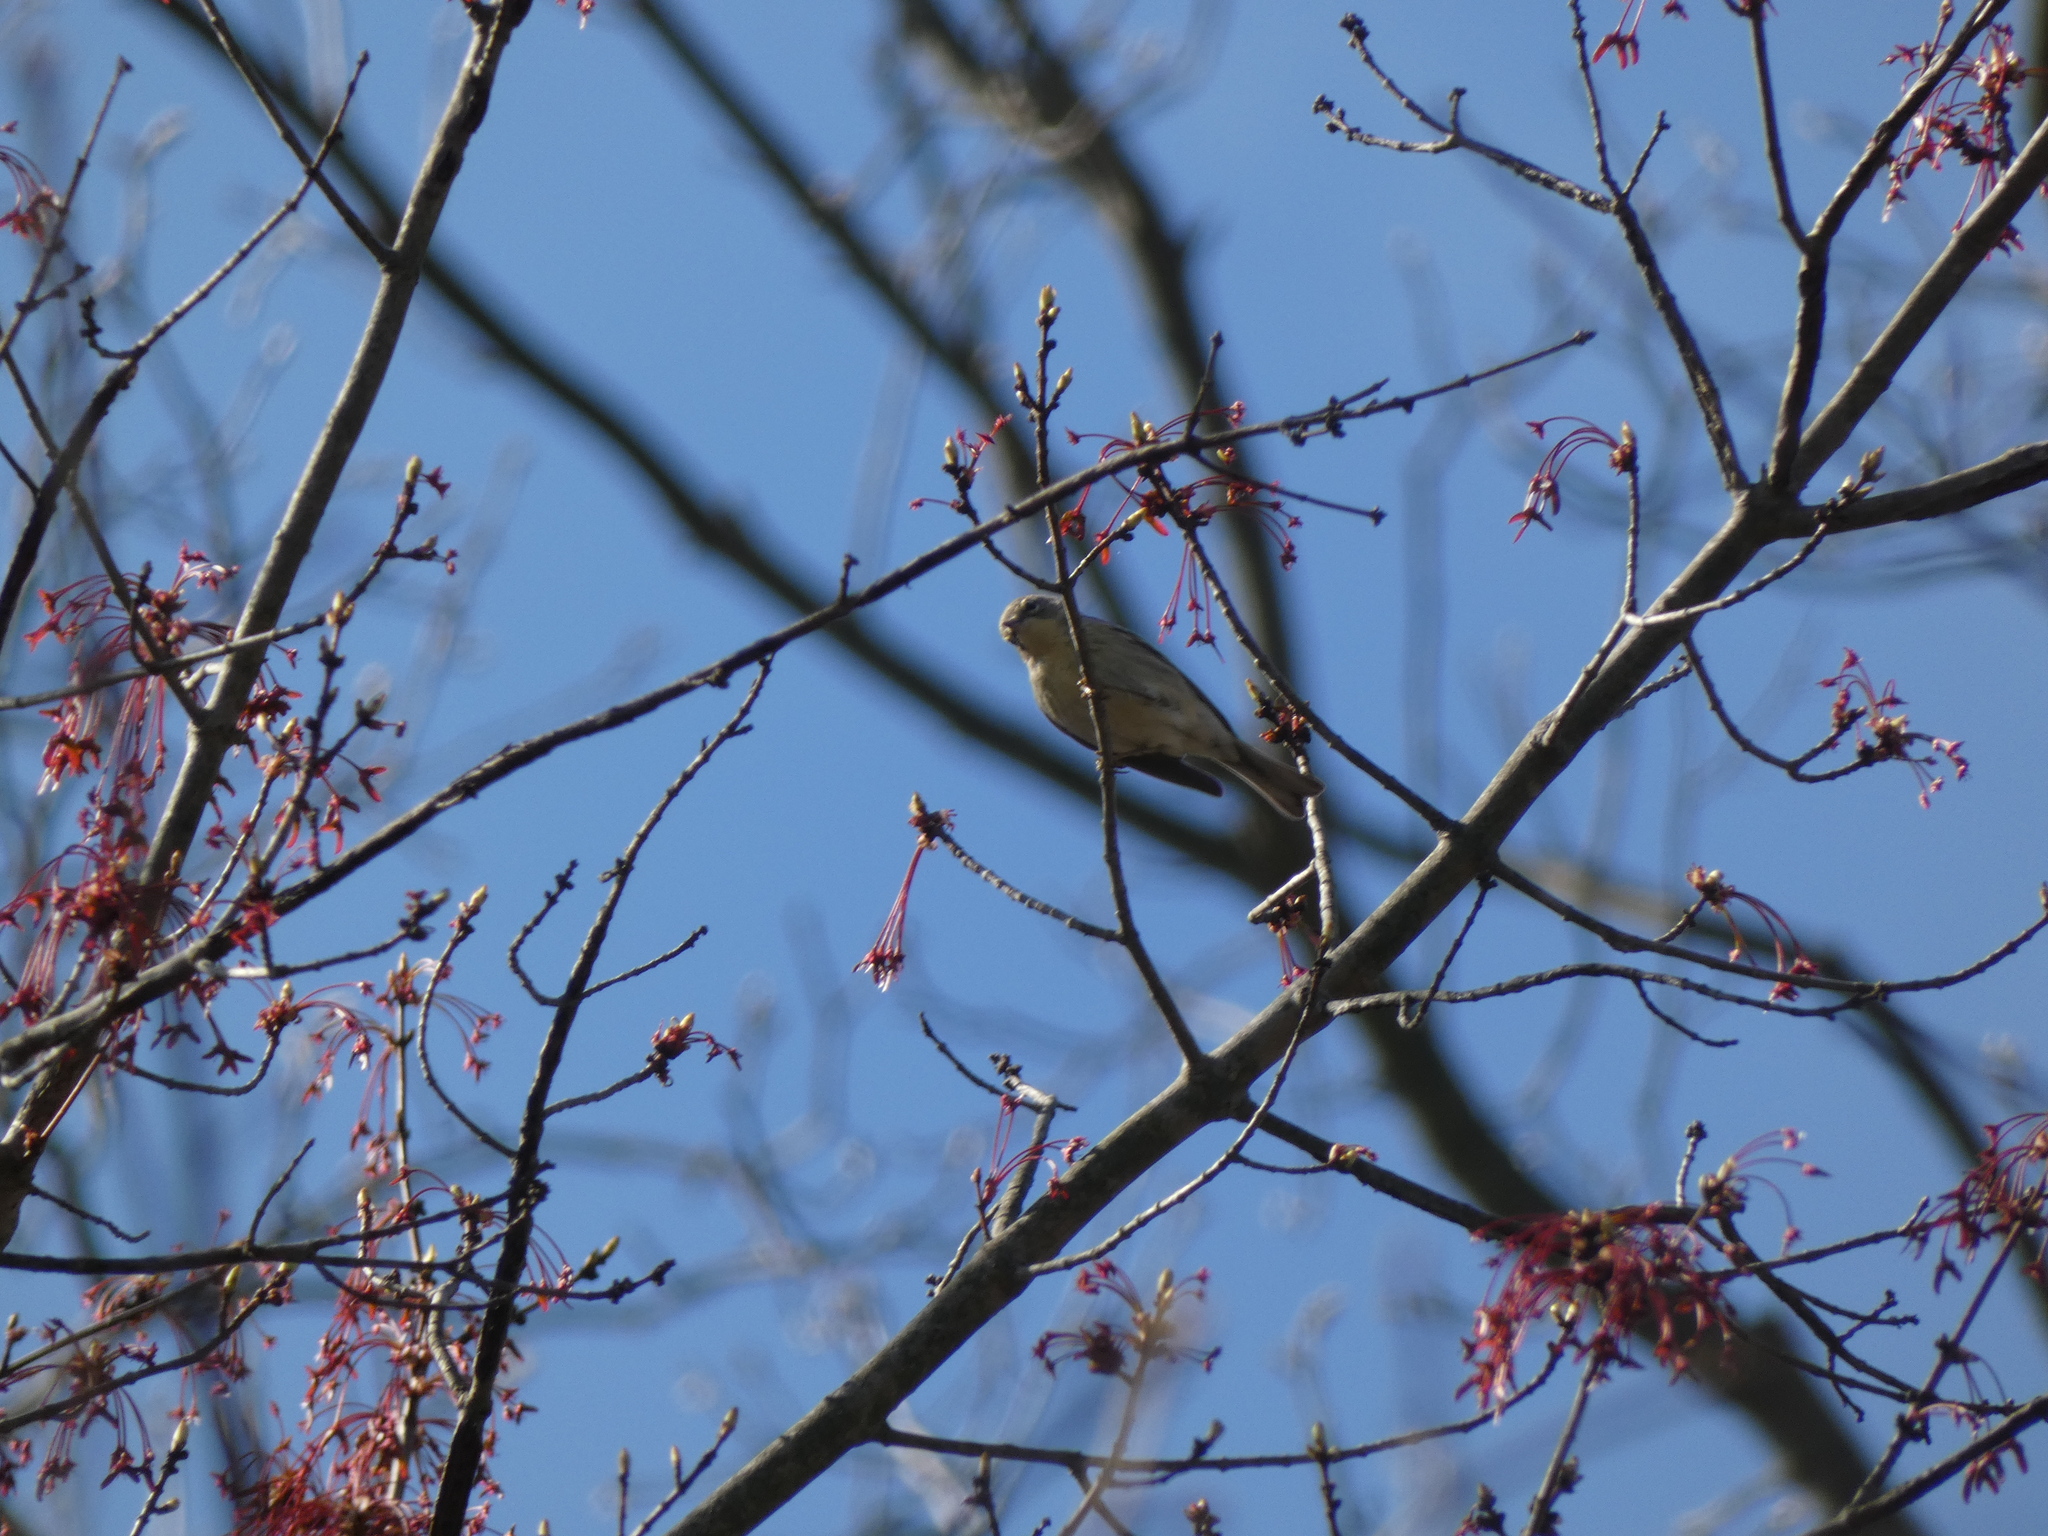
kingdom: Animalia
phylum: Chordata
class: Aves
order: Passeriformes
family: Parulidae
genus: Setophaga
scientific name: Setophaga coronata
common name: Myrtle warbler
